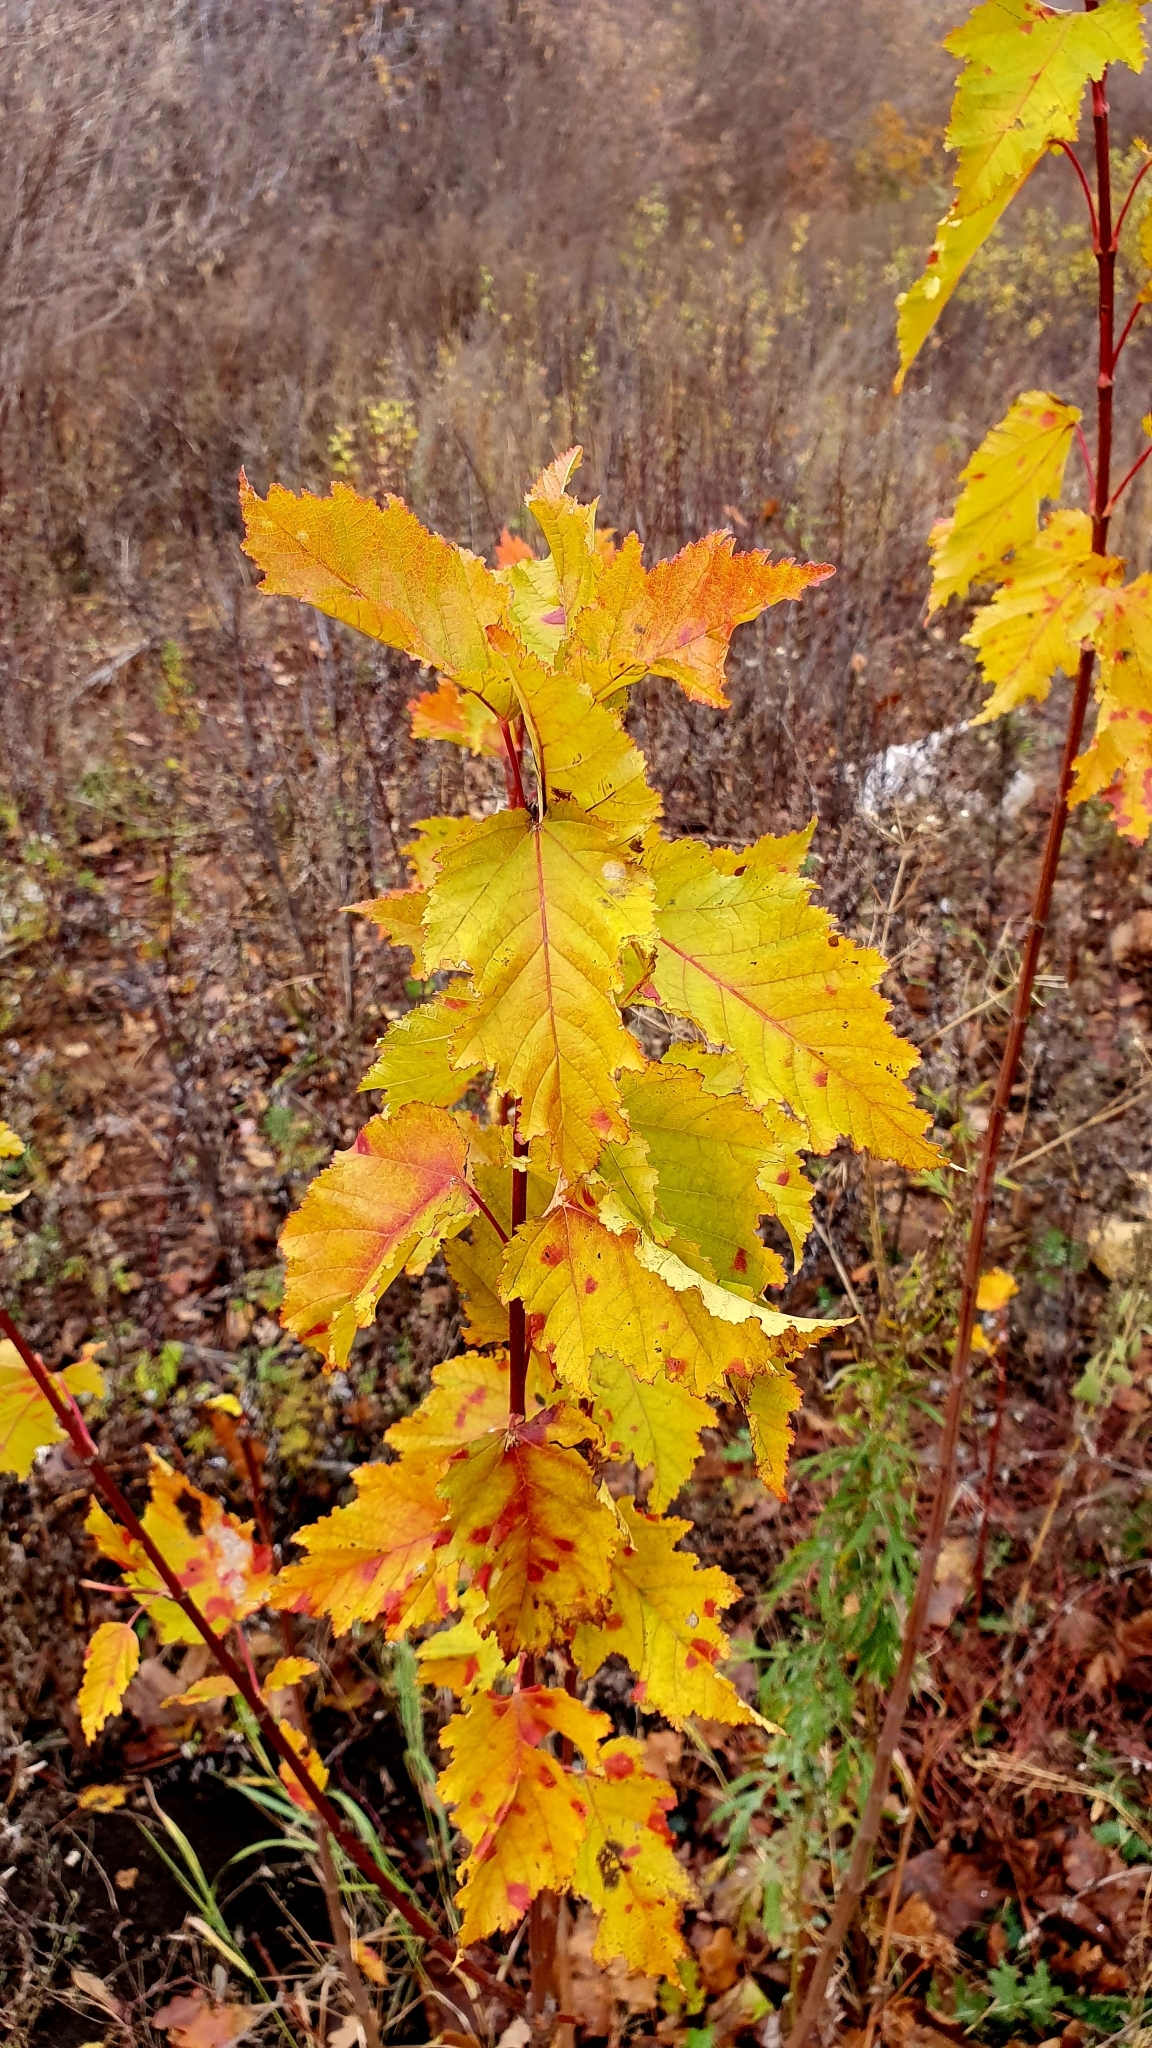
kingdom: Plantae
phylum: Tracheophyta
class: Magnoliopsida
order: Sapindales
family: Sapindaceae
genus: Acer
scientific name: Acer tataricum
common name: Tartar maple
